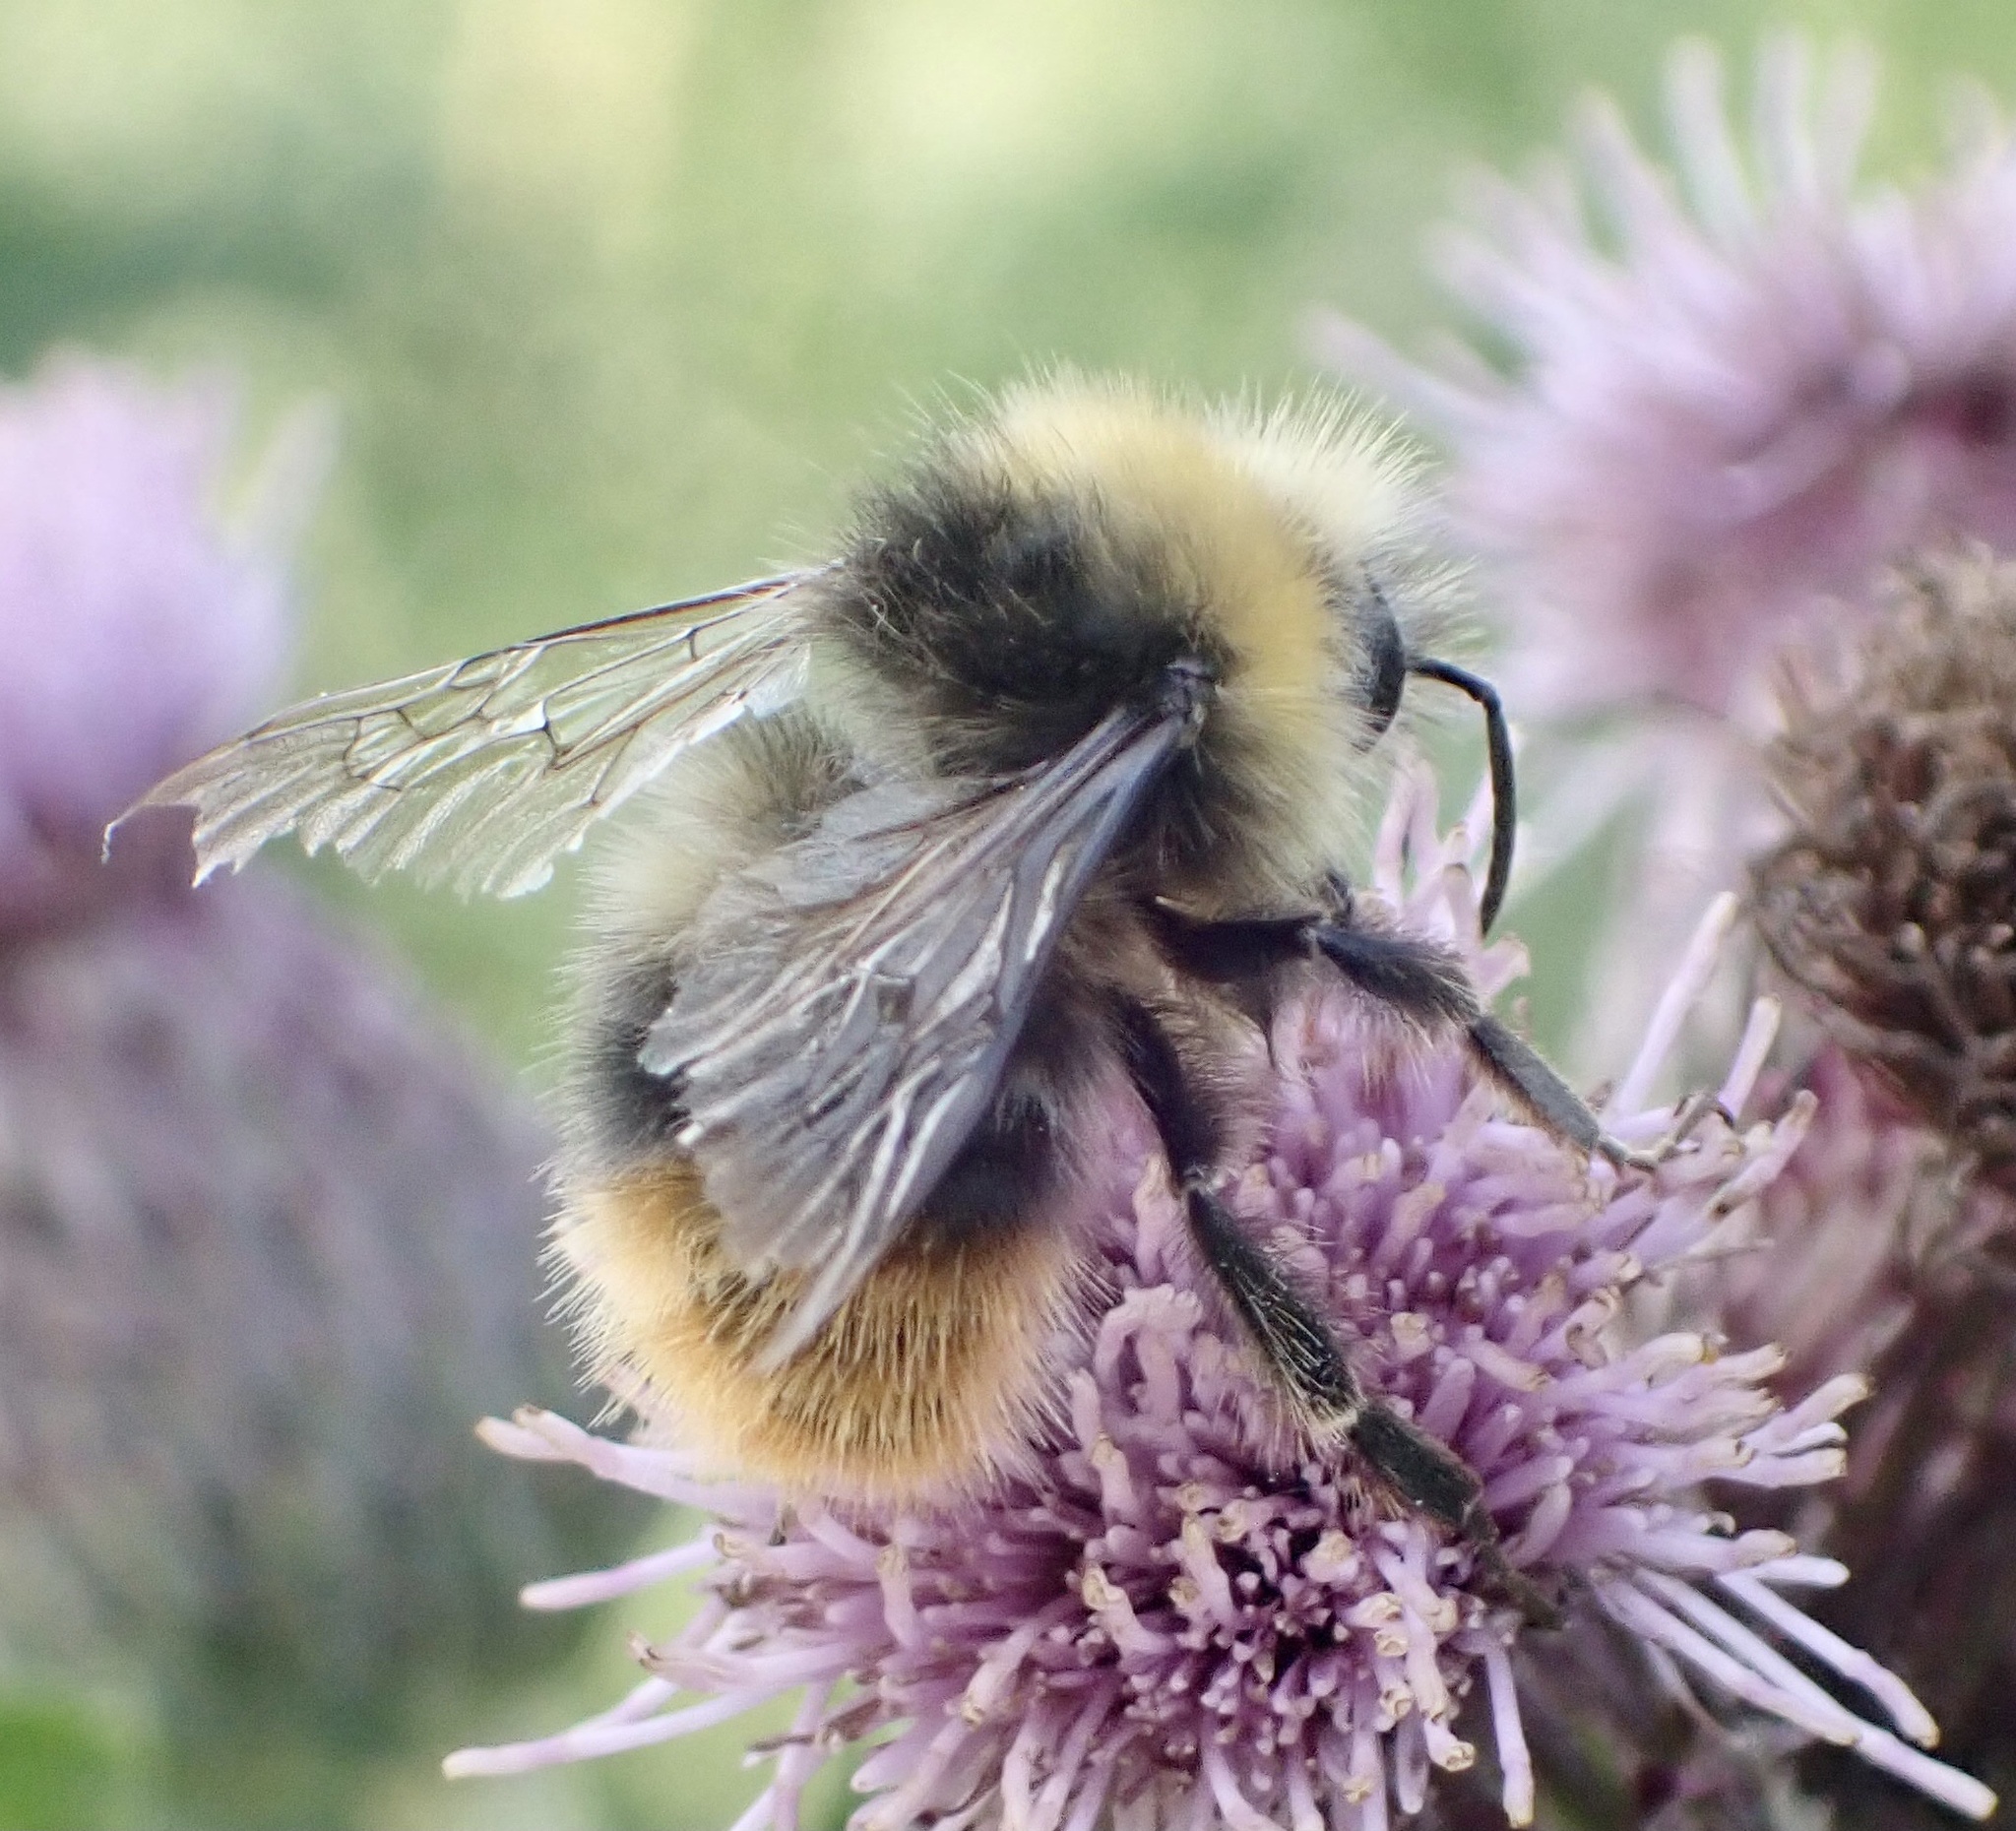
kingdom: Animalia
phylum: Arthropoda
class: Insecta
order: Hymenoptera
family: Apidae
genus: Bombus
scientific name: Bombus pratorum
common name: Early humble-bee
